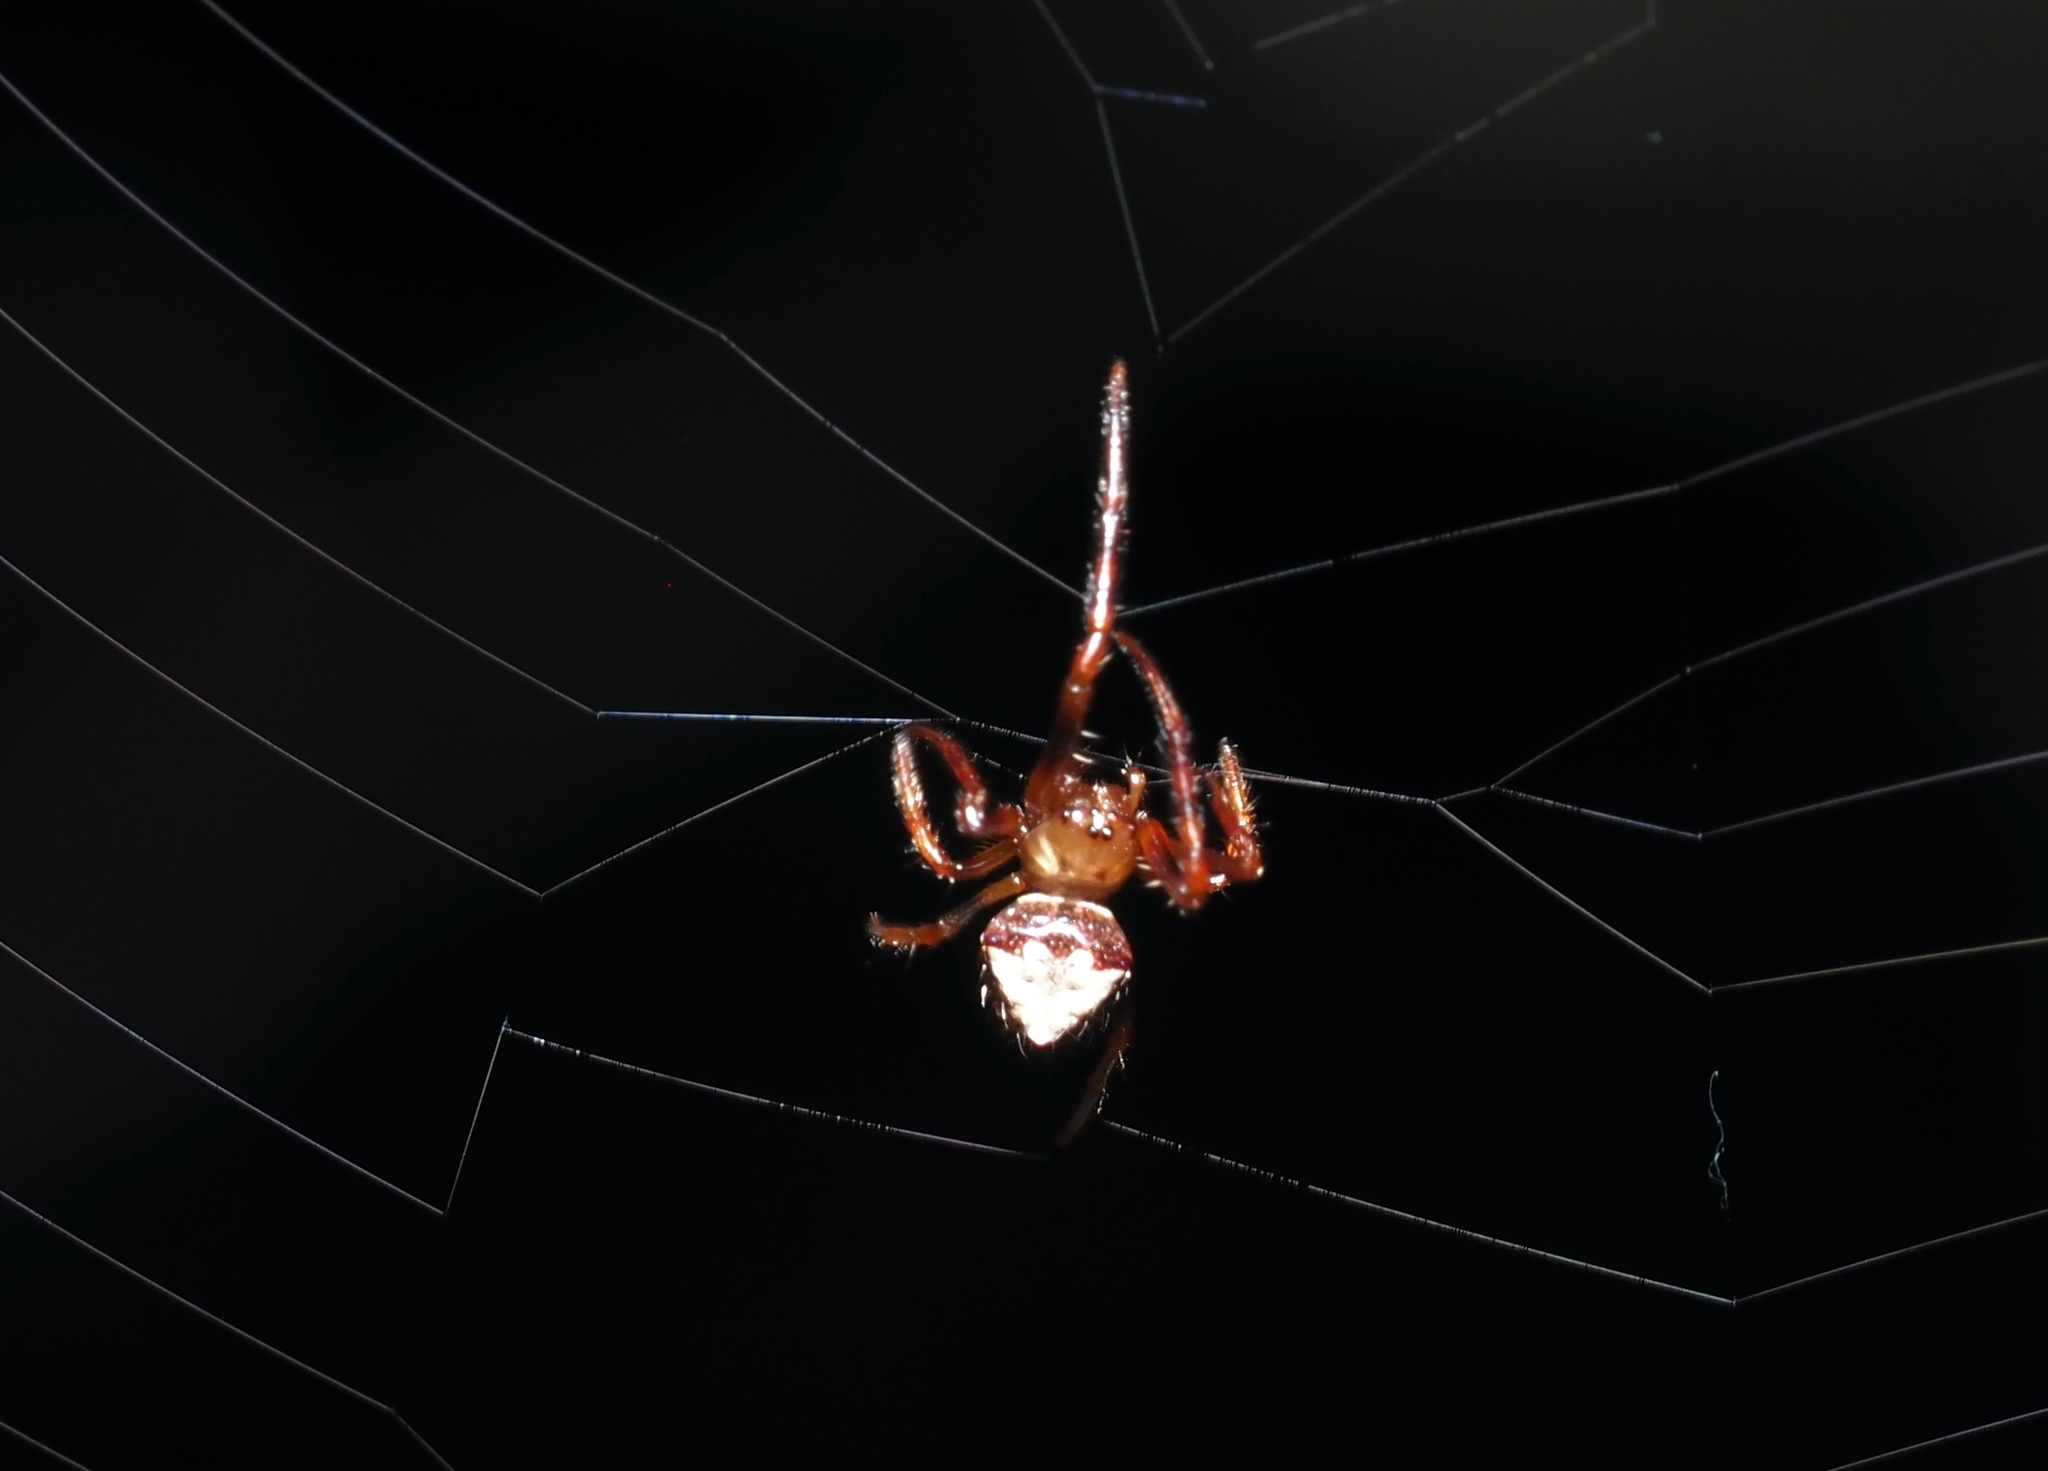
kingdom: Animalia
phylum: Arthropoda
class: Arachnida
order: Araneae
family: Araneidae
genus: Verrucosa
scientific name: Verrucosa arenata
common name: Orb weavers
